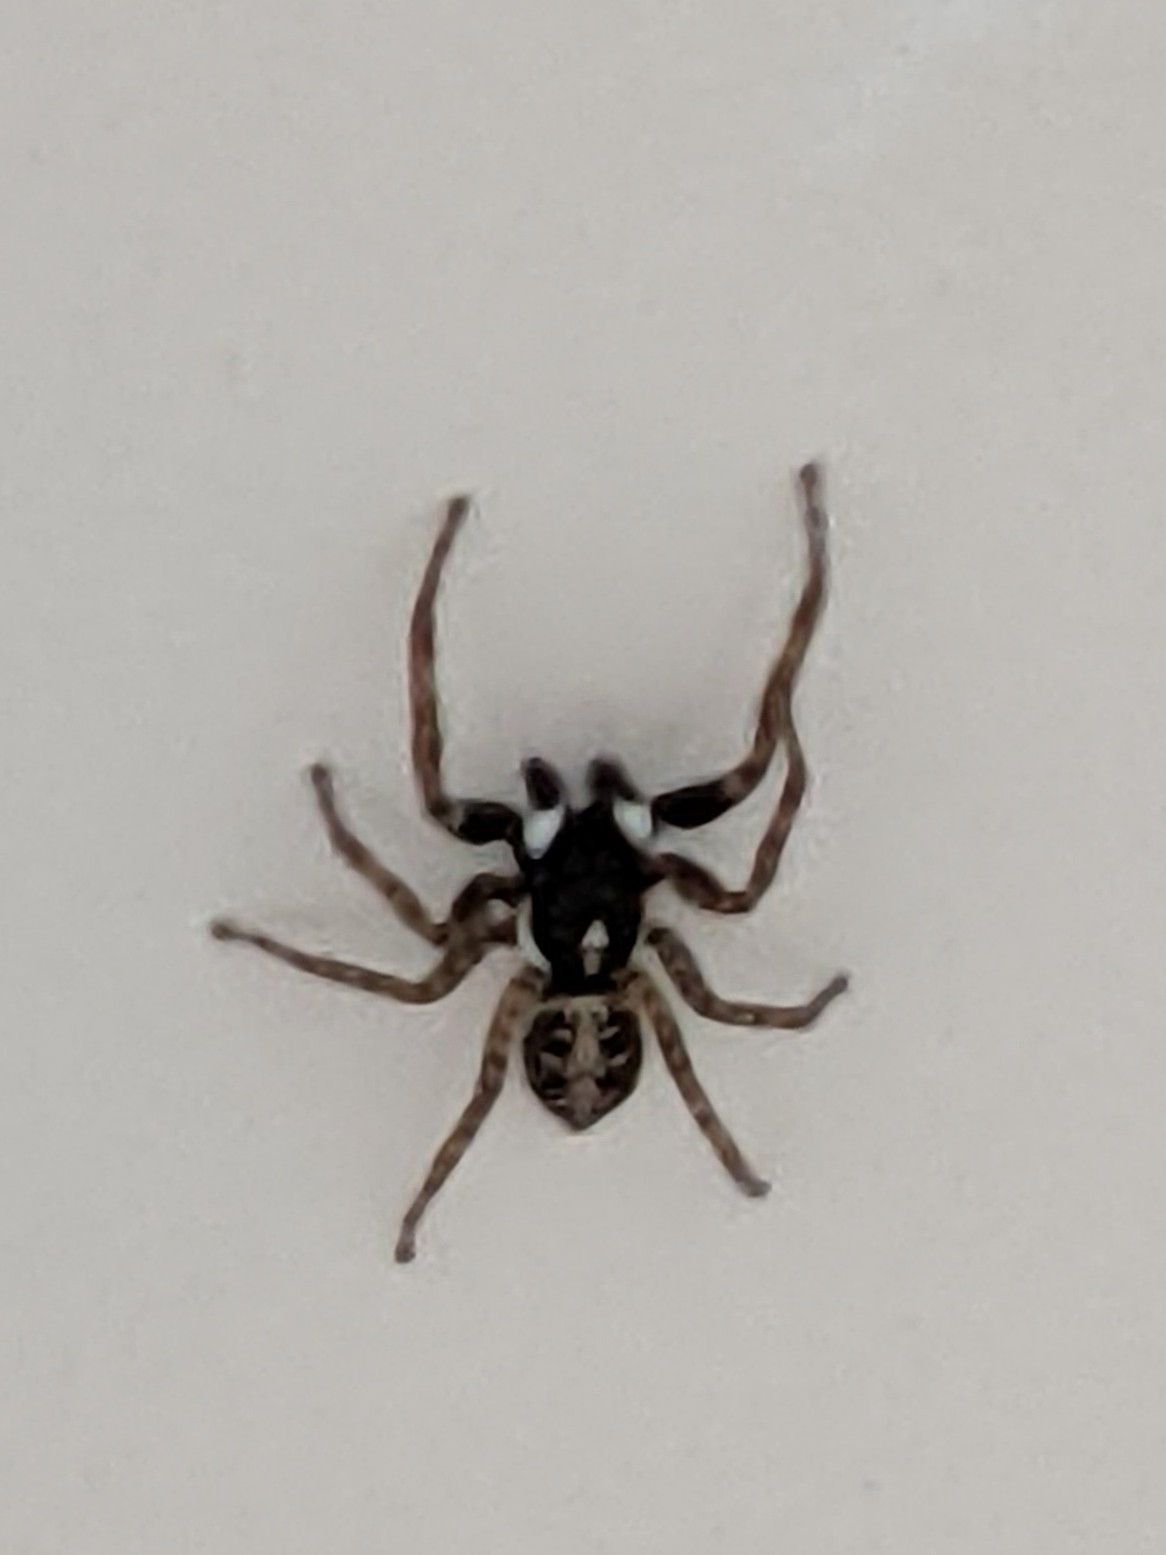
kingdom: Animalia
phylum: Arthropoda
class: Arachnida
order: Araneae
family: Salticidae
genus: Menemerus
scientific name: Menemerus semilimbatus
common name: Jumping spider
